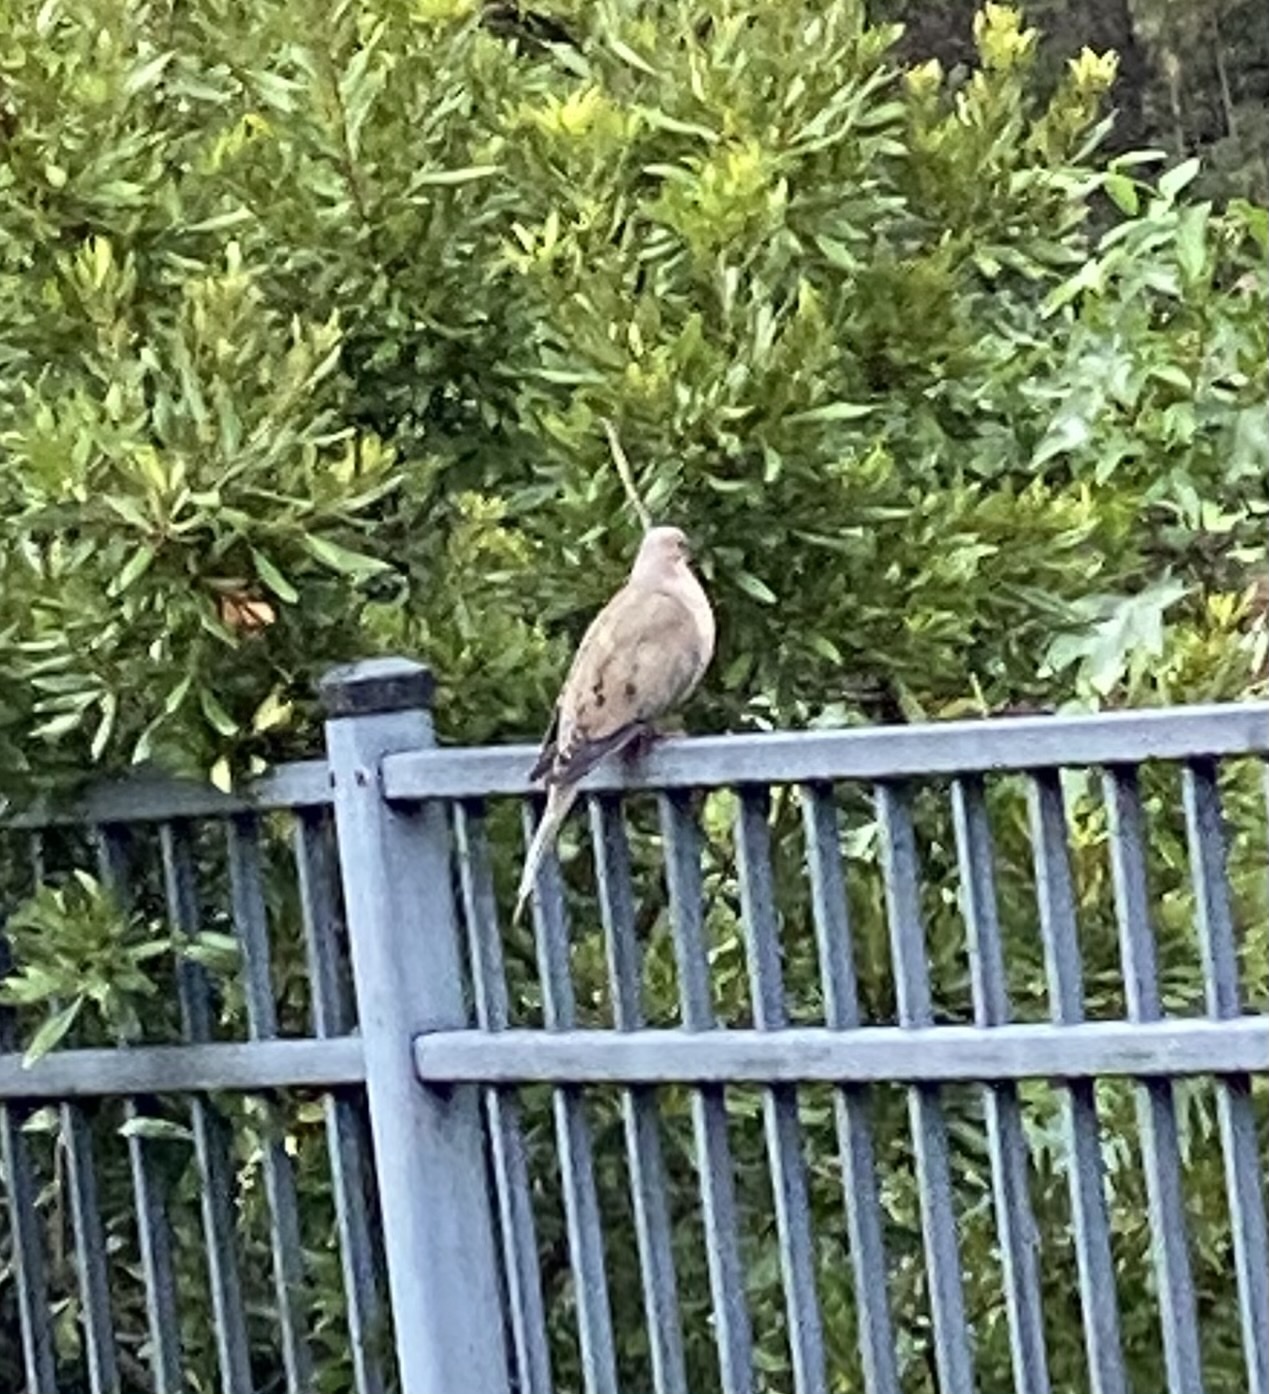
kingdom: Animalia
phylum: Chordata
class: Aves
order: Columbiformes
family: Columbidae
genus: Zenaida
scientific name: Zenaida macroura
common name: Mourning dove
